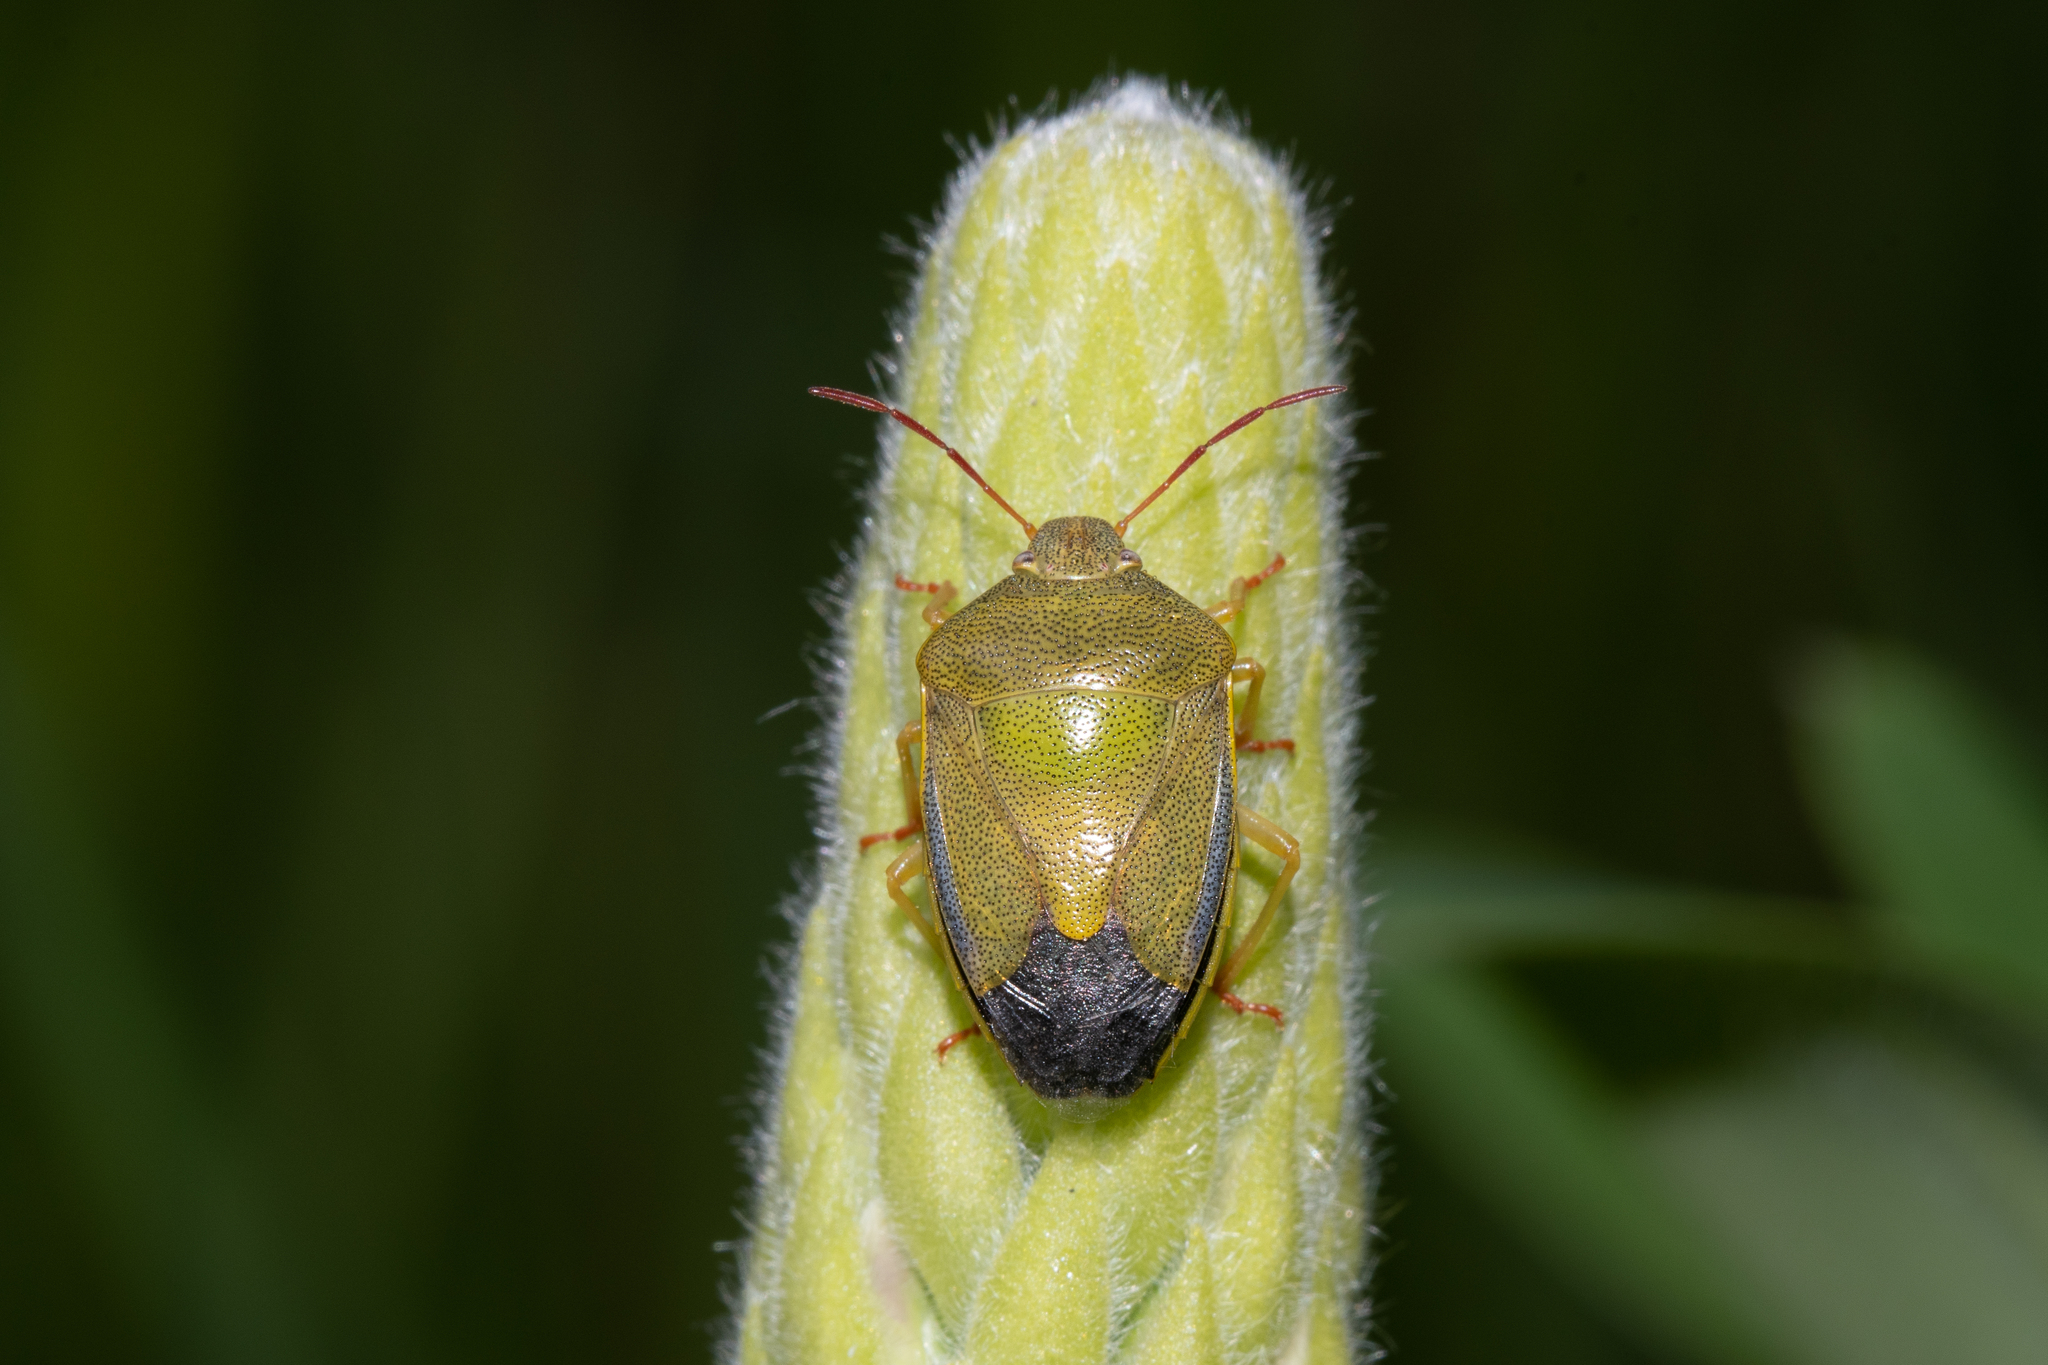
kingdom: Animalia
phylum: Arthropoda
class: Insecta
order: Hemiptera
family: Pentatomidae
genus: Piezodorus
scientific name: Piezodorus lituratus
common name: Stink bug
